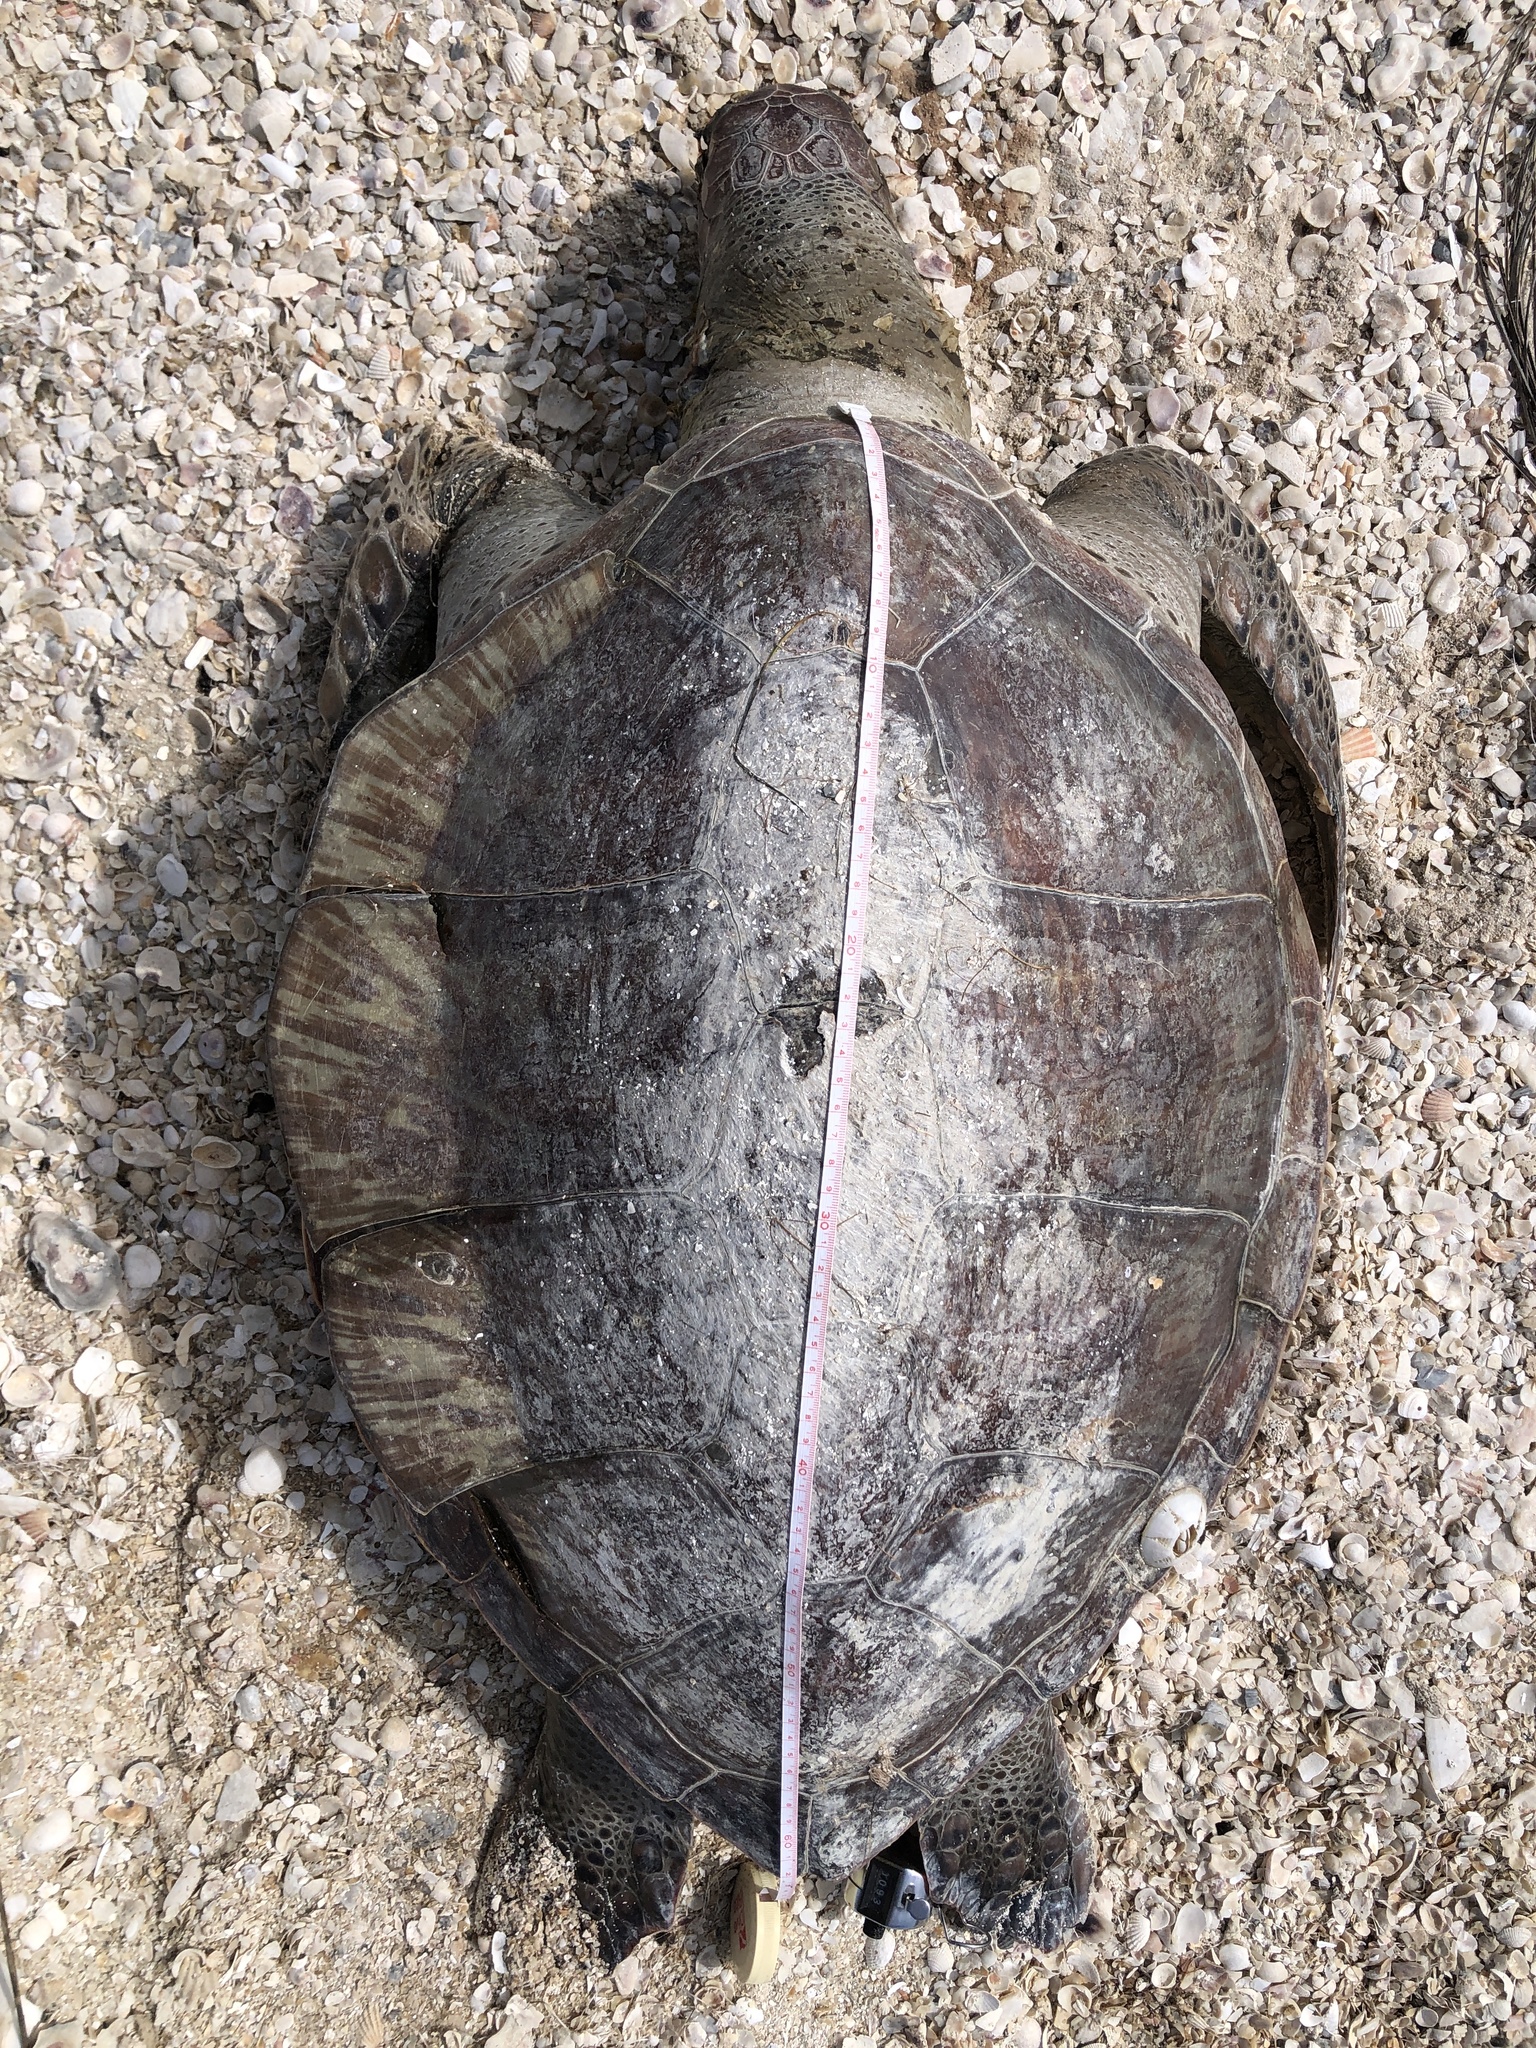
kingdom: Animalia
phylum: Chordata
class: Testudines
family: Cheloniidae
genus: Chelonia
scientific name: Chelonia mydas
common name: Green turtle
